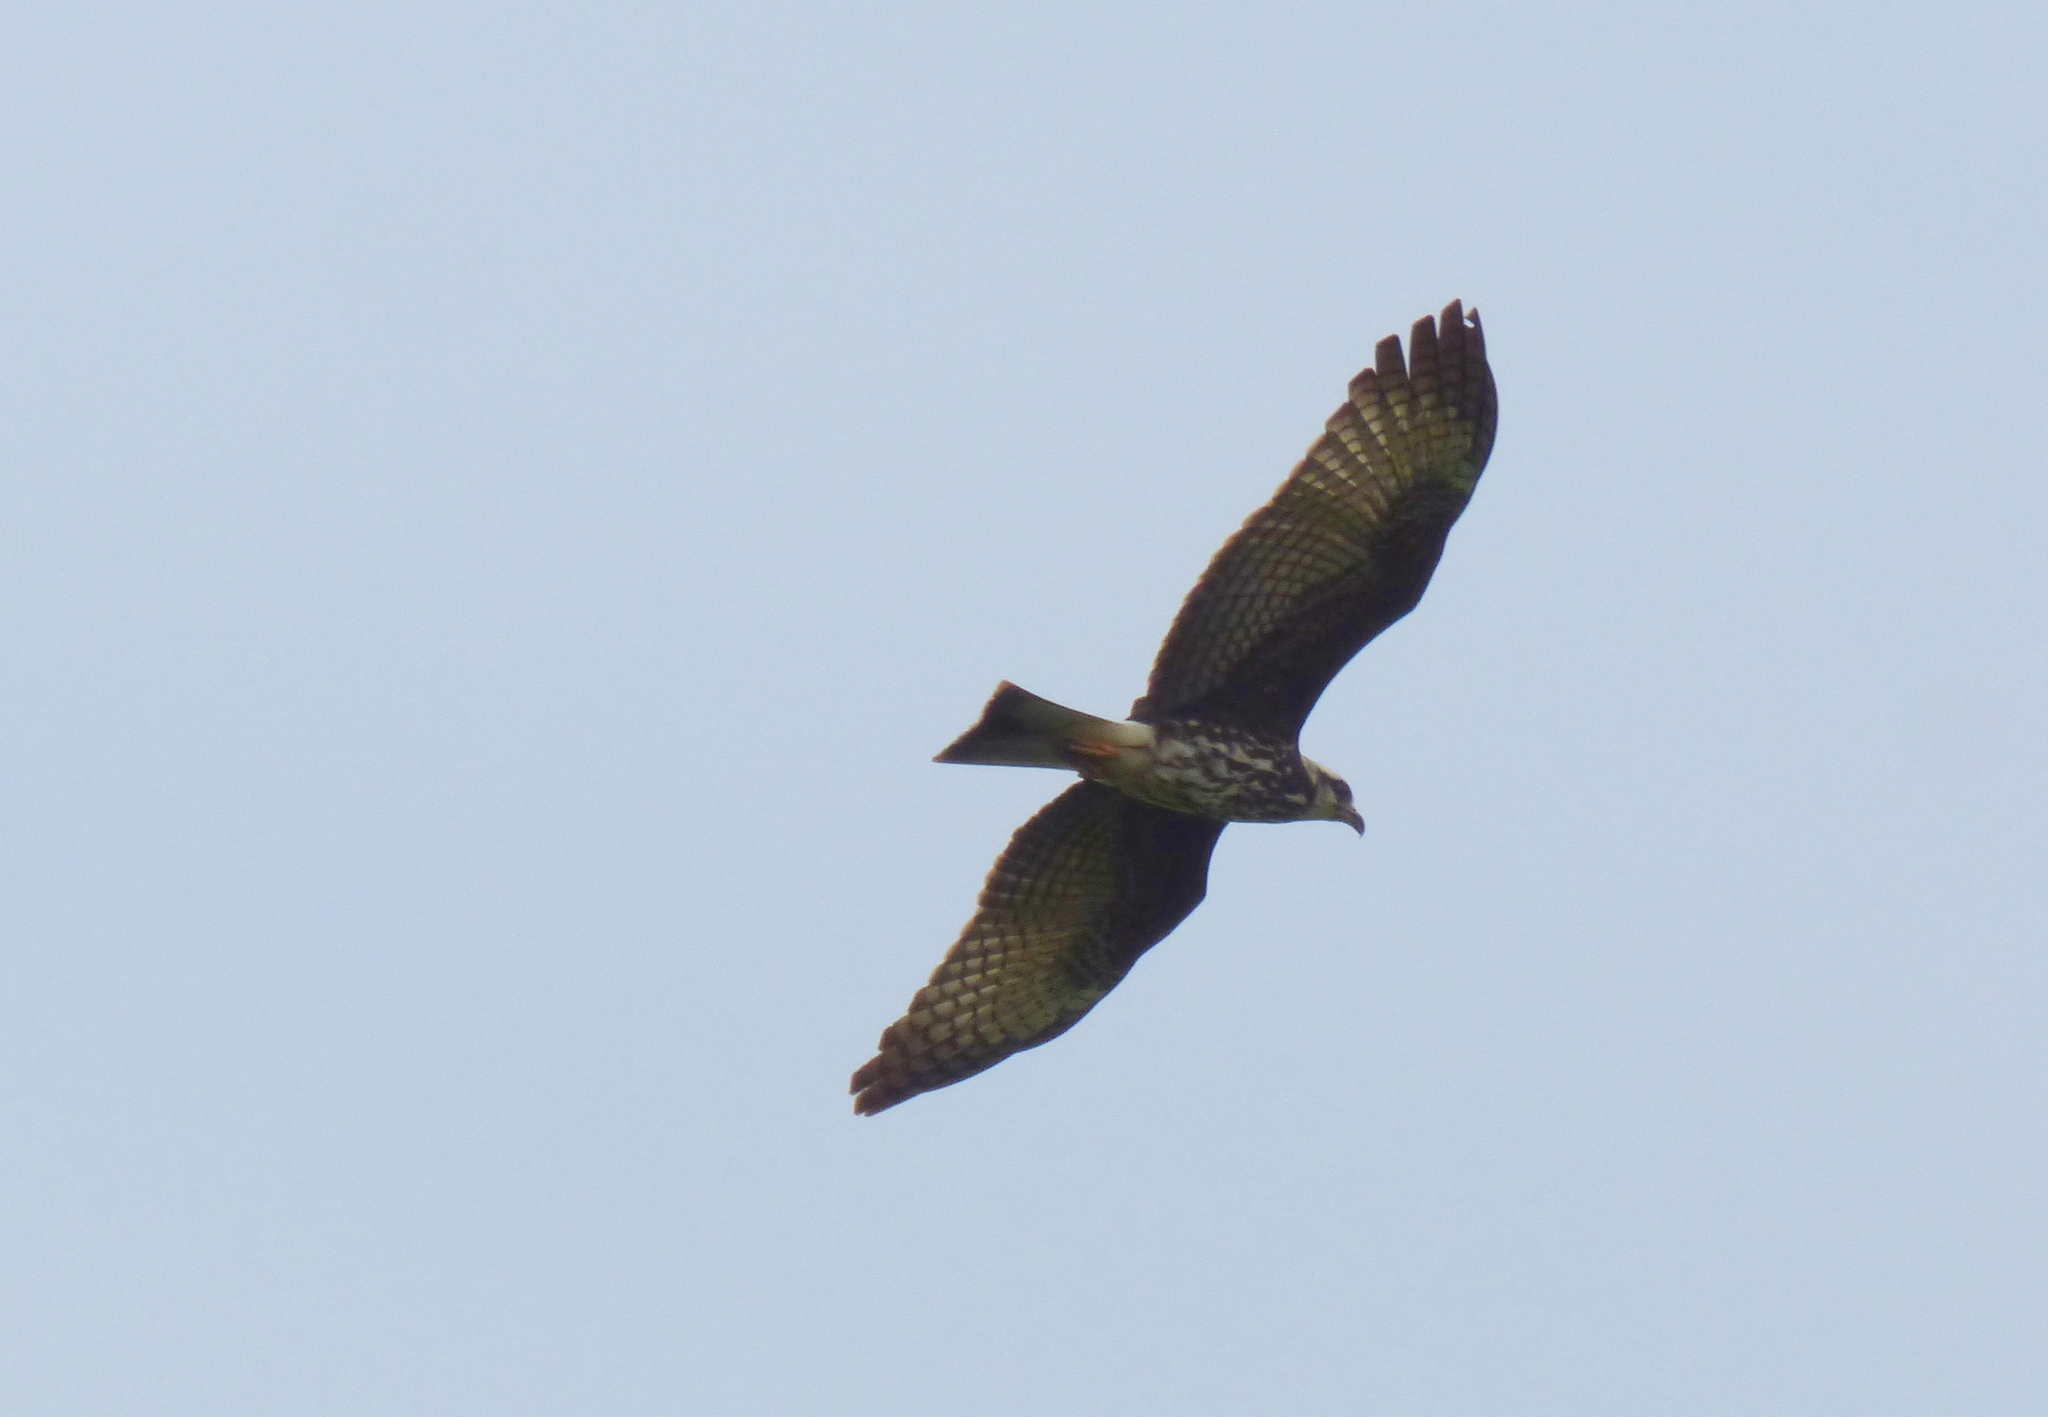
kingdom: Animalia
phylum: Chordata
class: Aves
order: Accipitriformes
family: Accipitridae
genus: Rostrhamus
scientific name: Rostrhamus sociabilis
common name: Snail kite
